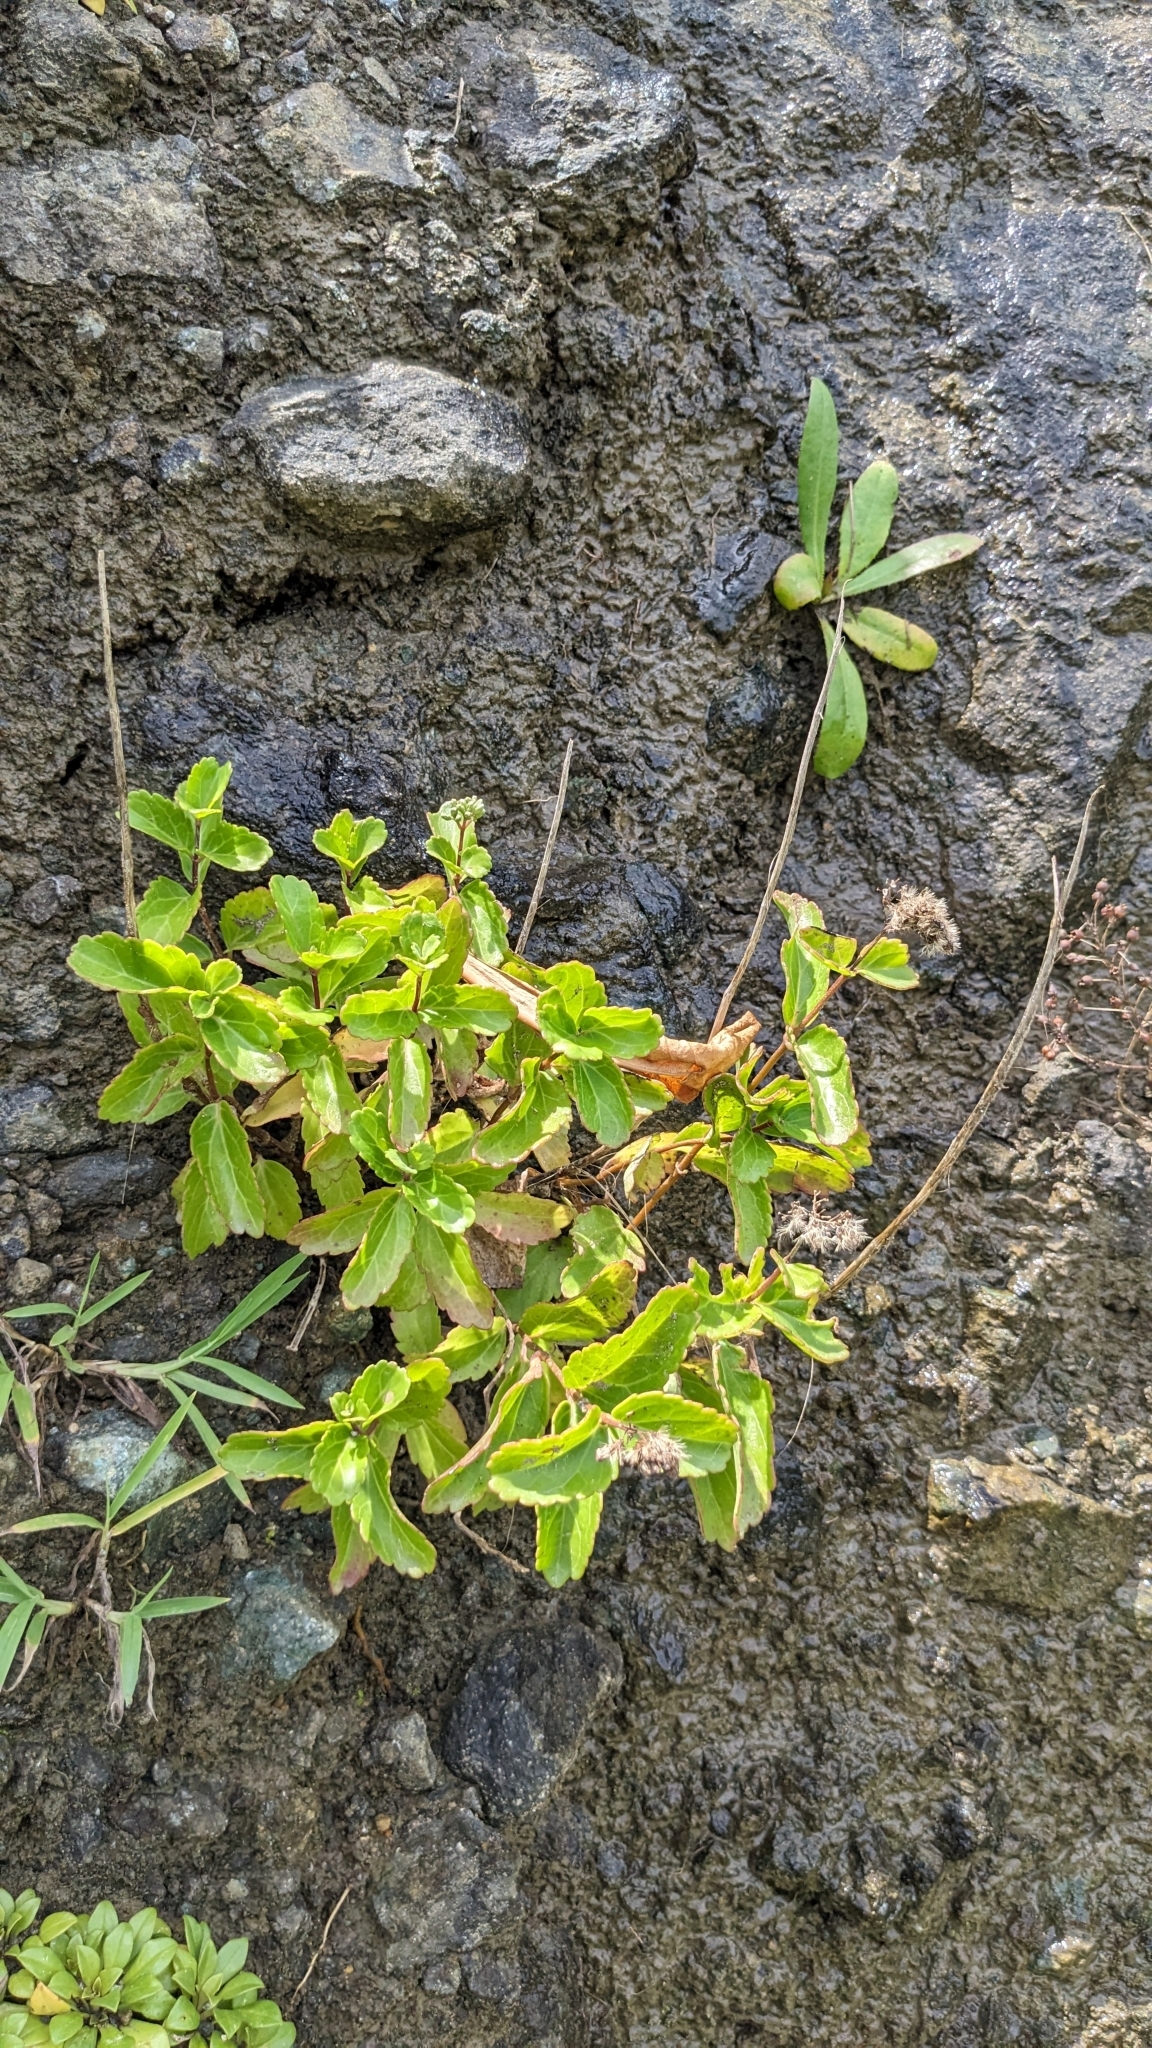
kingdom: Plantae
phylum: Tracheophyta
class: Magnoliopsida
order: Asterales
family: Asteraceae
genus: Eupatorium
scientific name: Eupatorium hualienense
